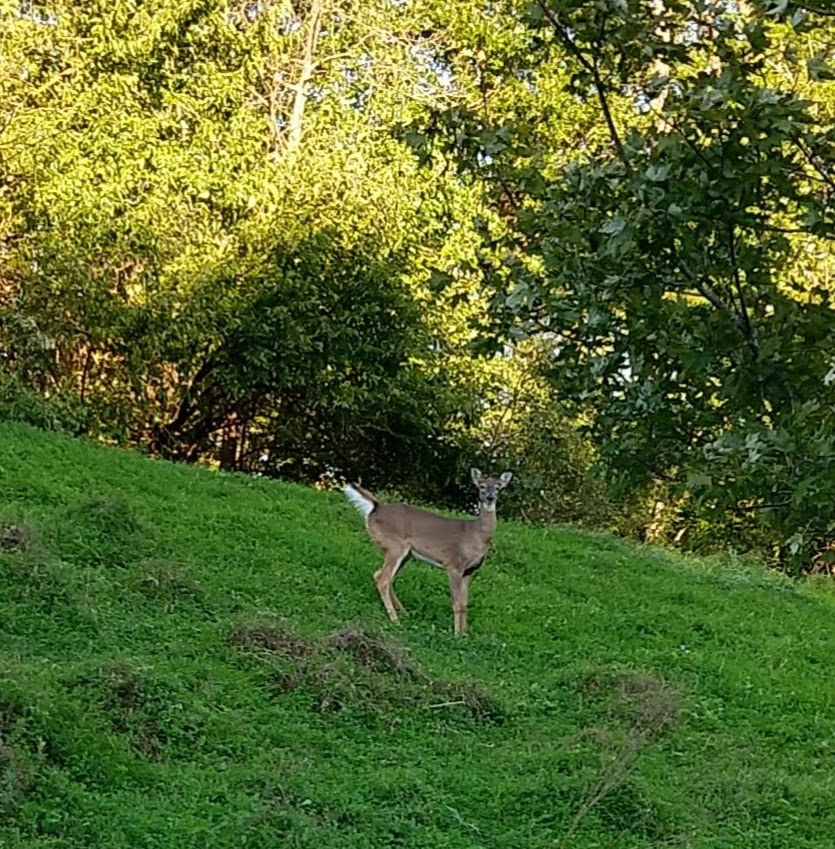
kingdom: Animalia
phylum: Chordata
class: Mammalia
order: Artiodactyla
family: Cervidae
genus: Odocoileus
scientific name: Odocoileus virginianus
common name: White-tailed deer
